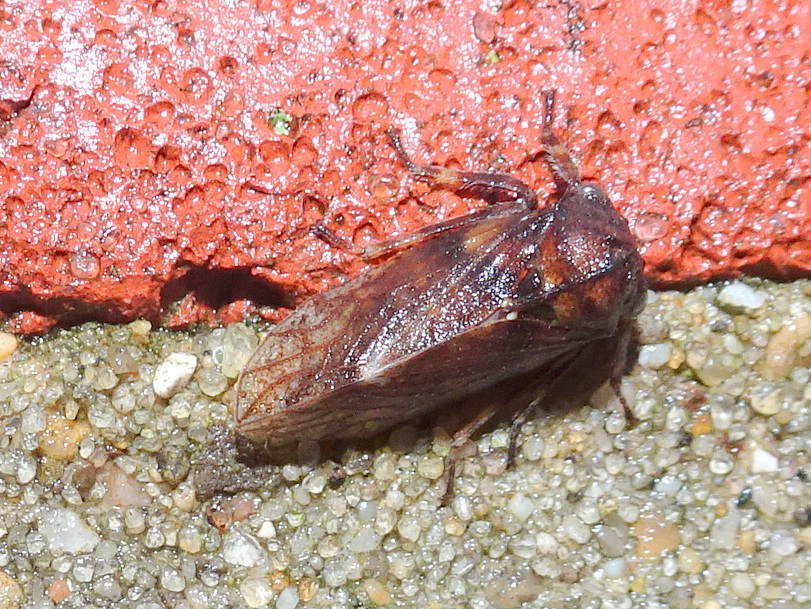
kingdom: Animalia
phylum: Arthropoda
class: Insecta
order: Hemiptera
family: Membracidae
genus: Microcentrus
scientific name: Microcentrus caryae
